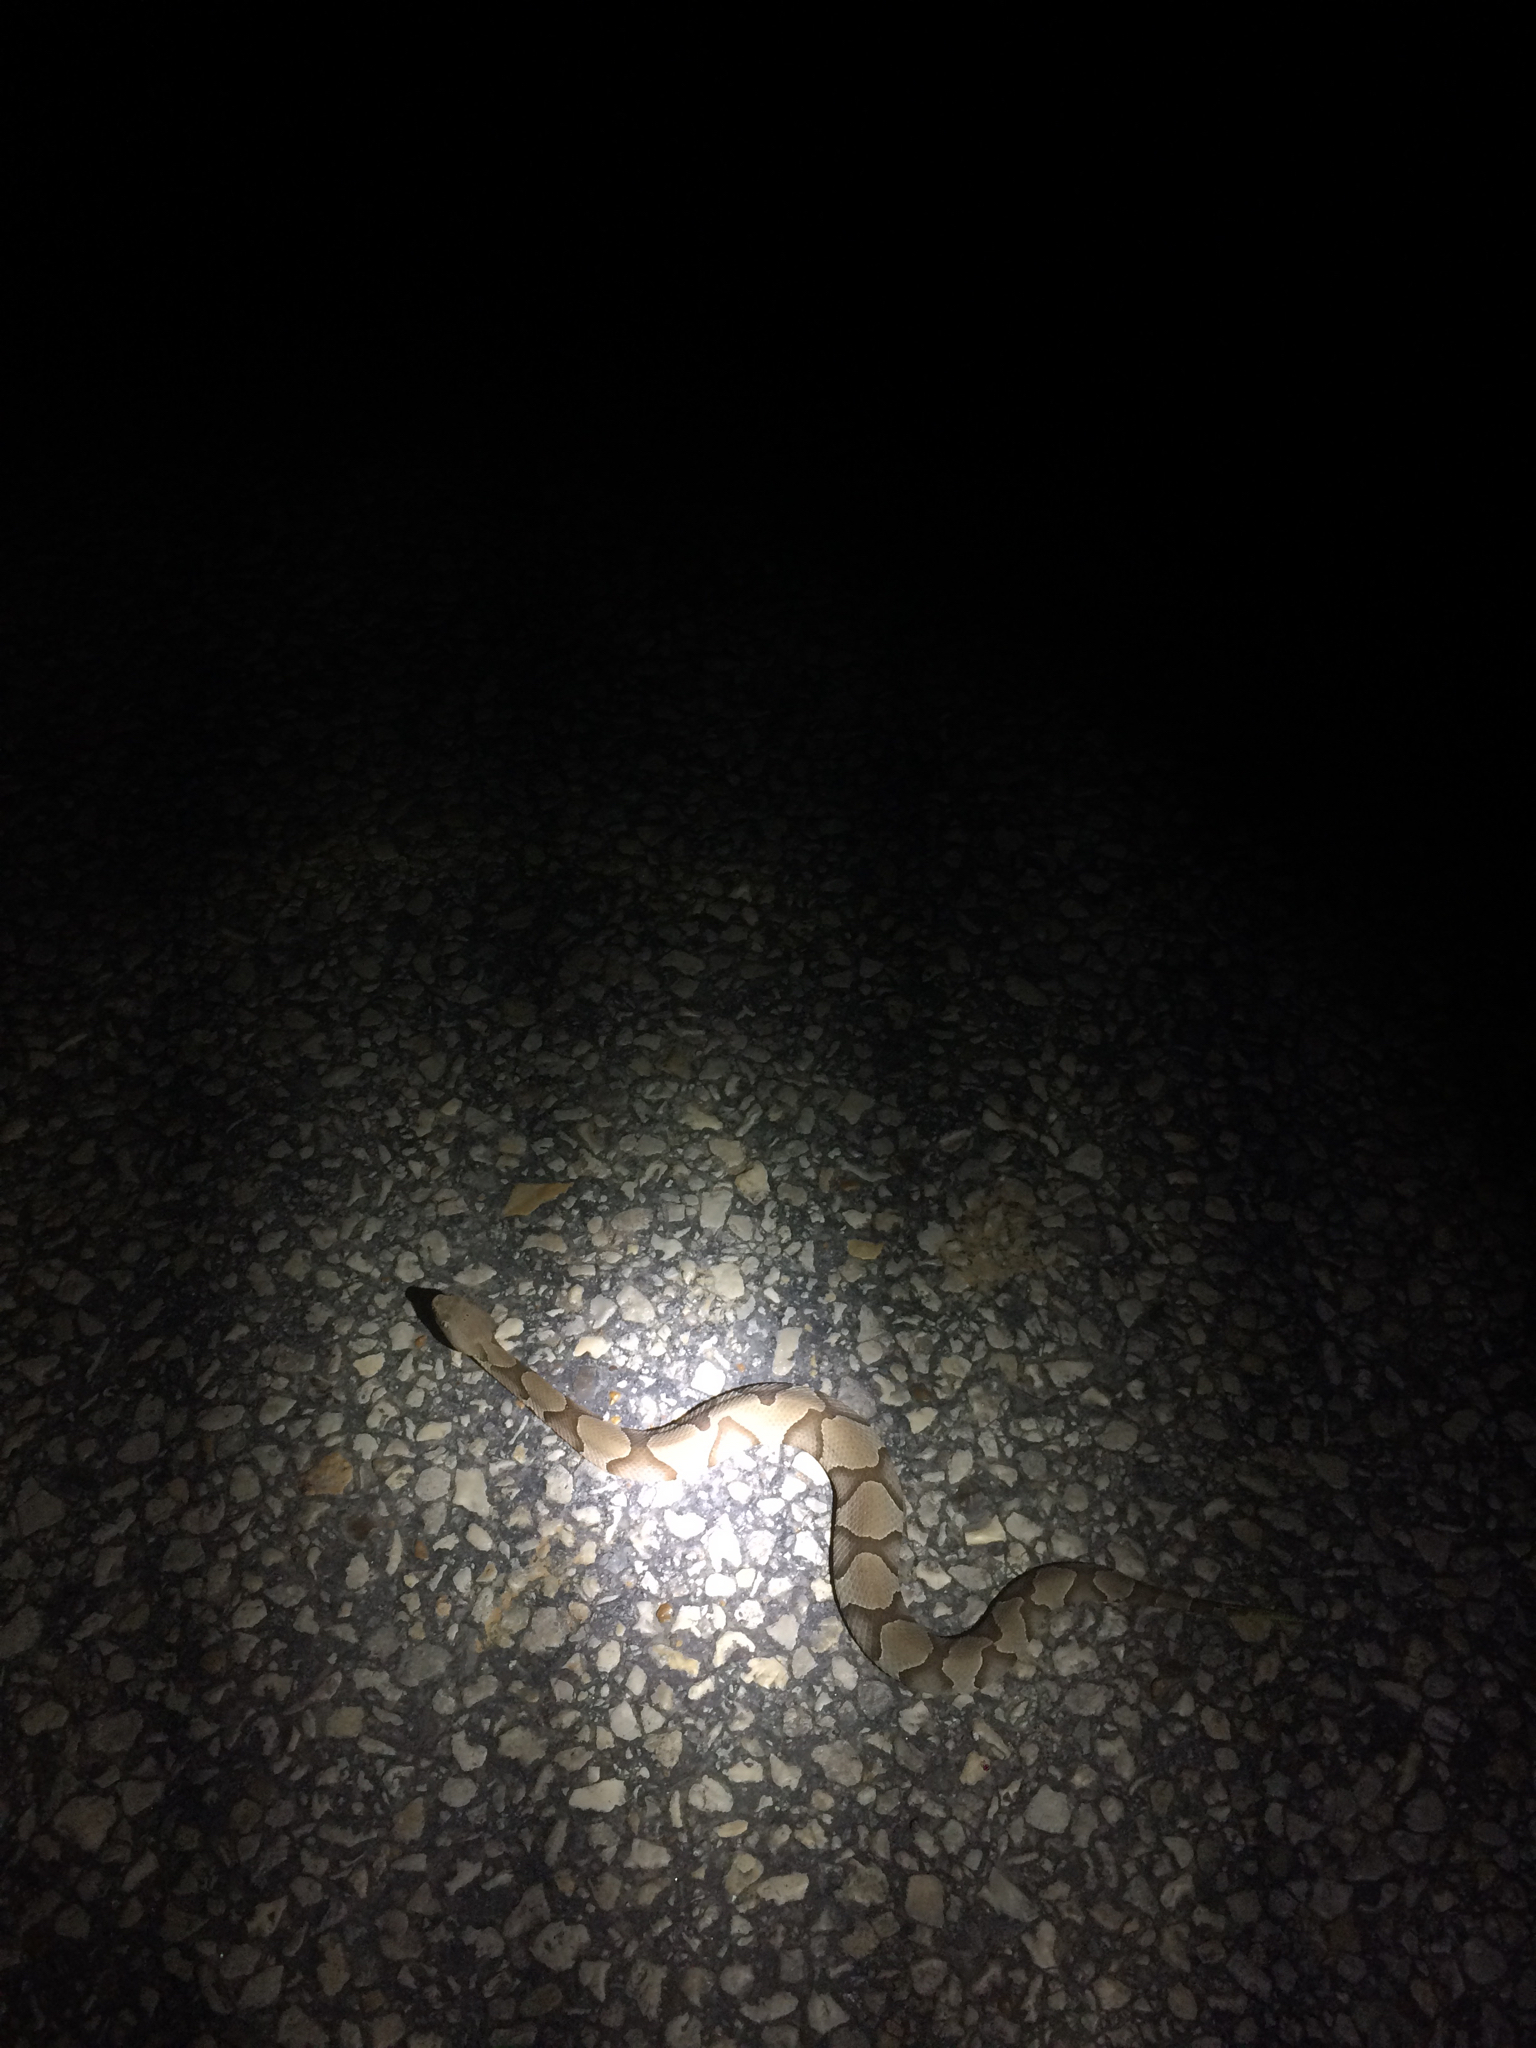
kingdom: Animalia
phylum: Chordata
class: Squamata
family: Viperidae
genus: Agkistrodon
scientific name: Agkistrodon contortrix
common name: Northern copperhead
